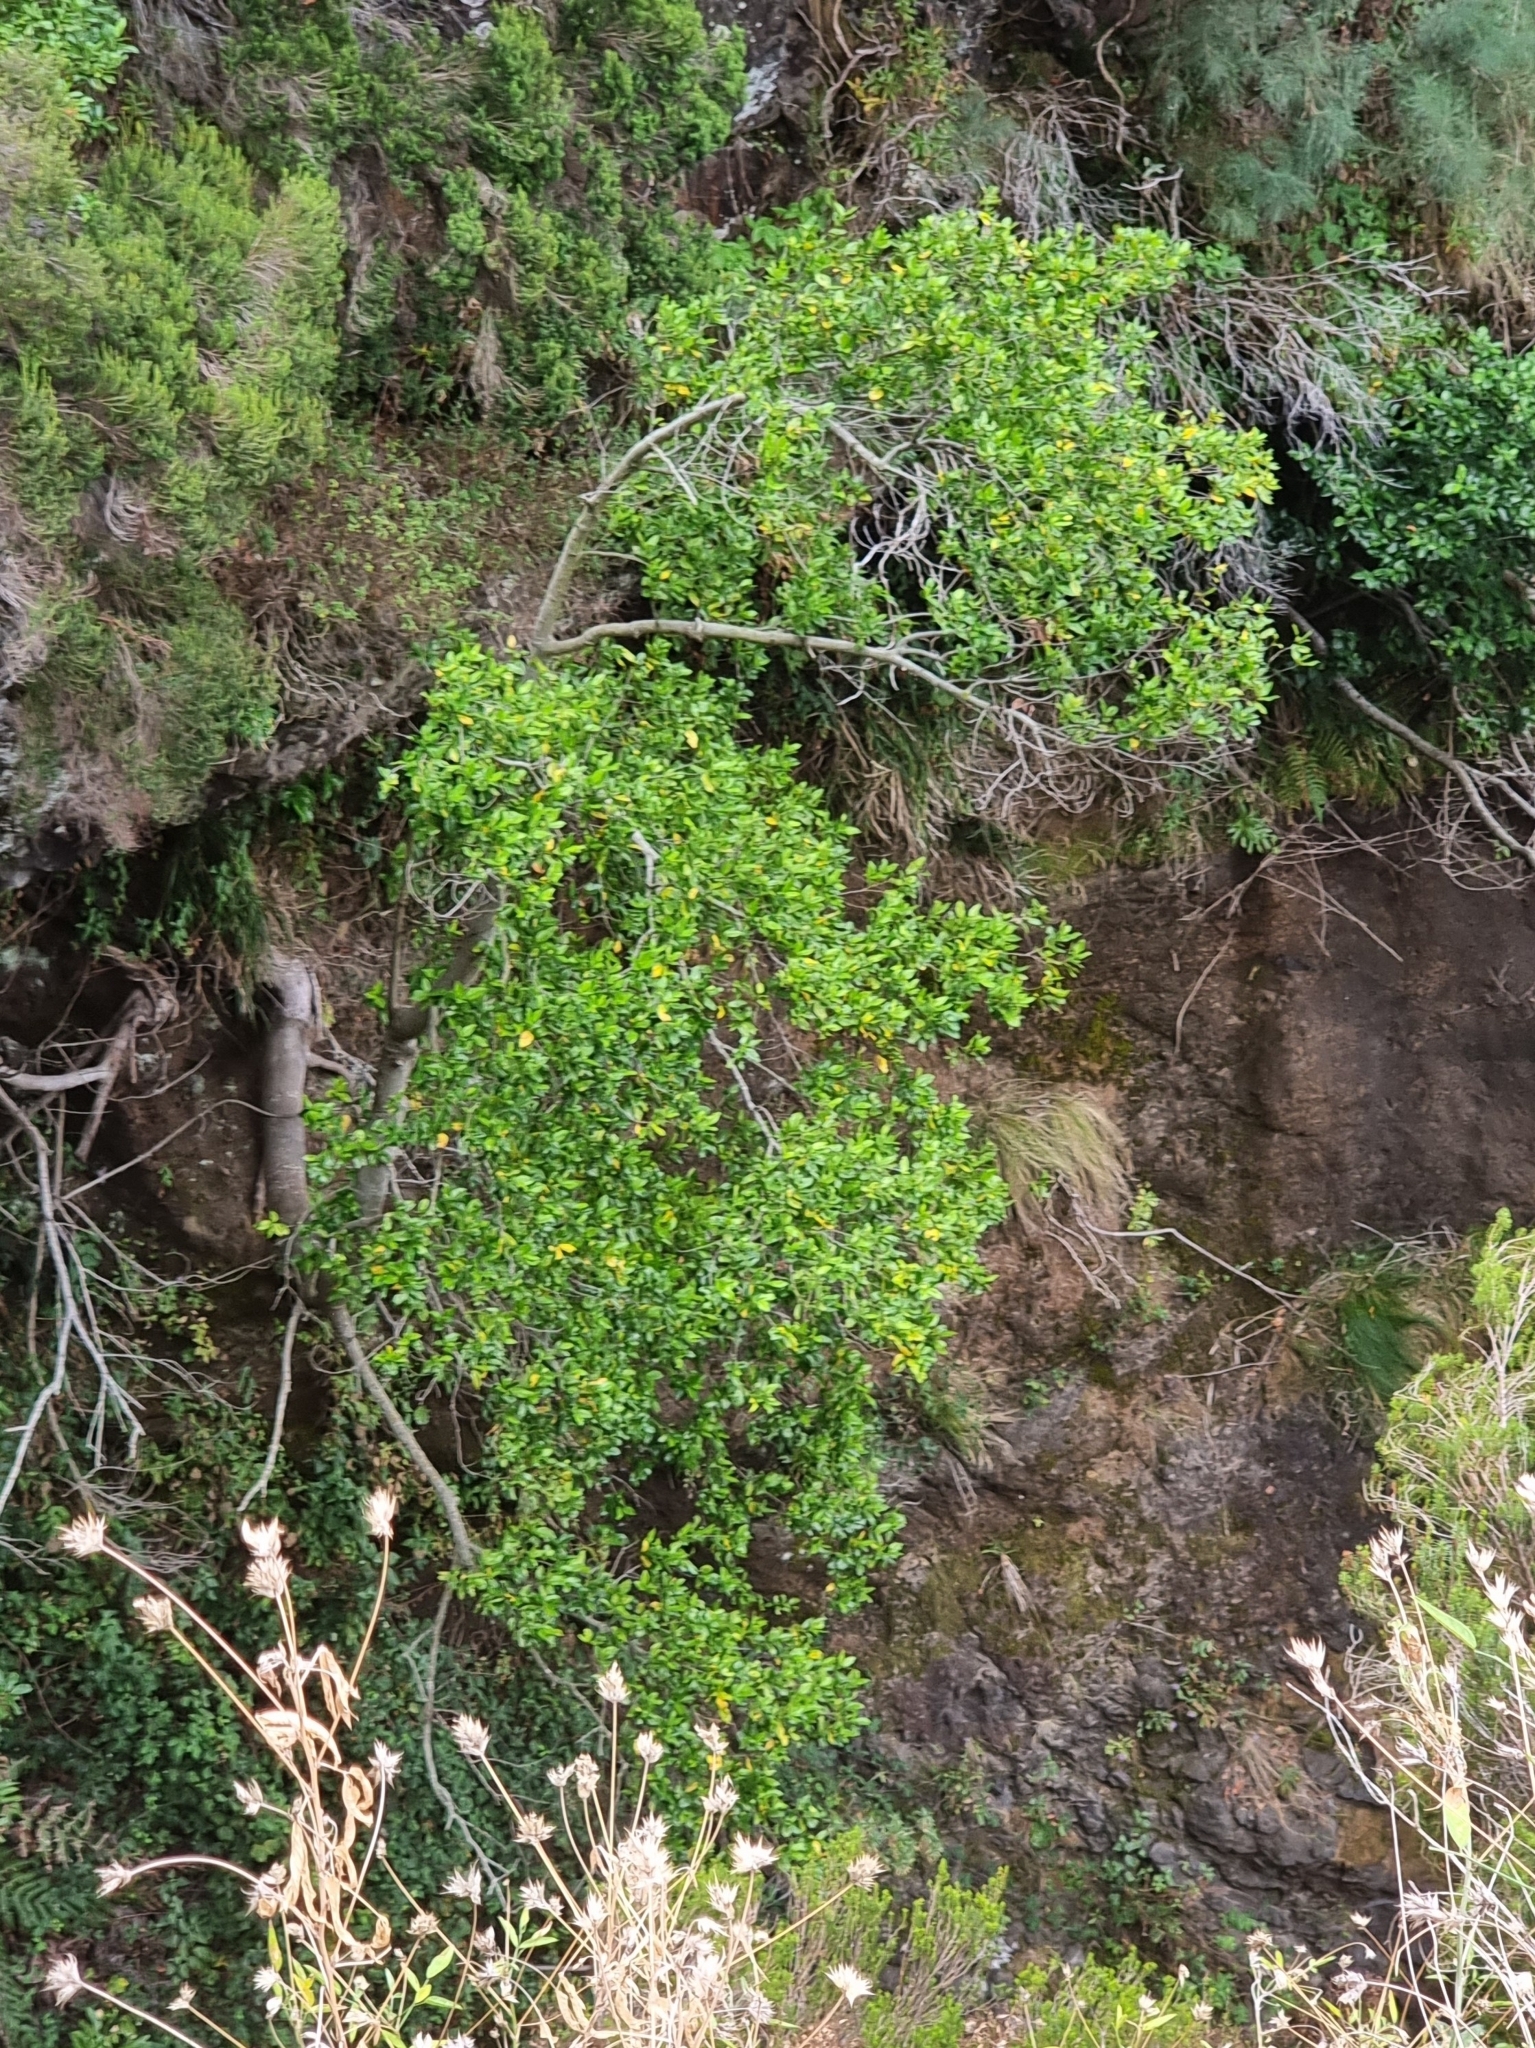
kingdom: Plantae
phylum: Tracheophyta
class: Magnoliopsida
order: Laurales
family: Lauraceae
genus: Mespilodaphne
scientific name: Mespilodaphne foetens
